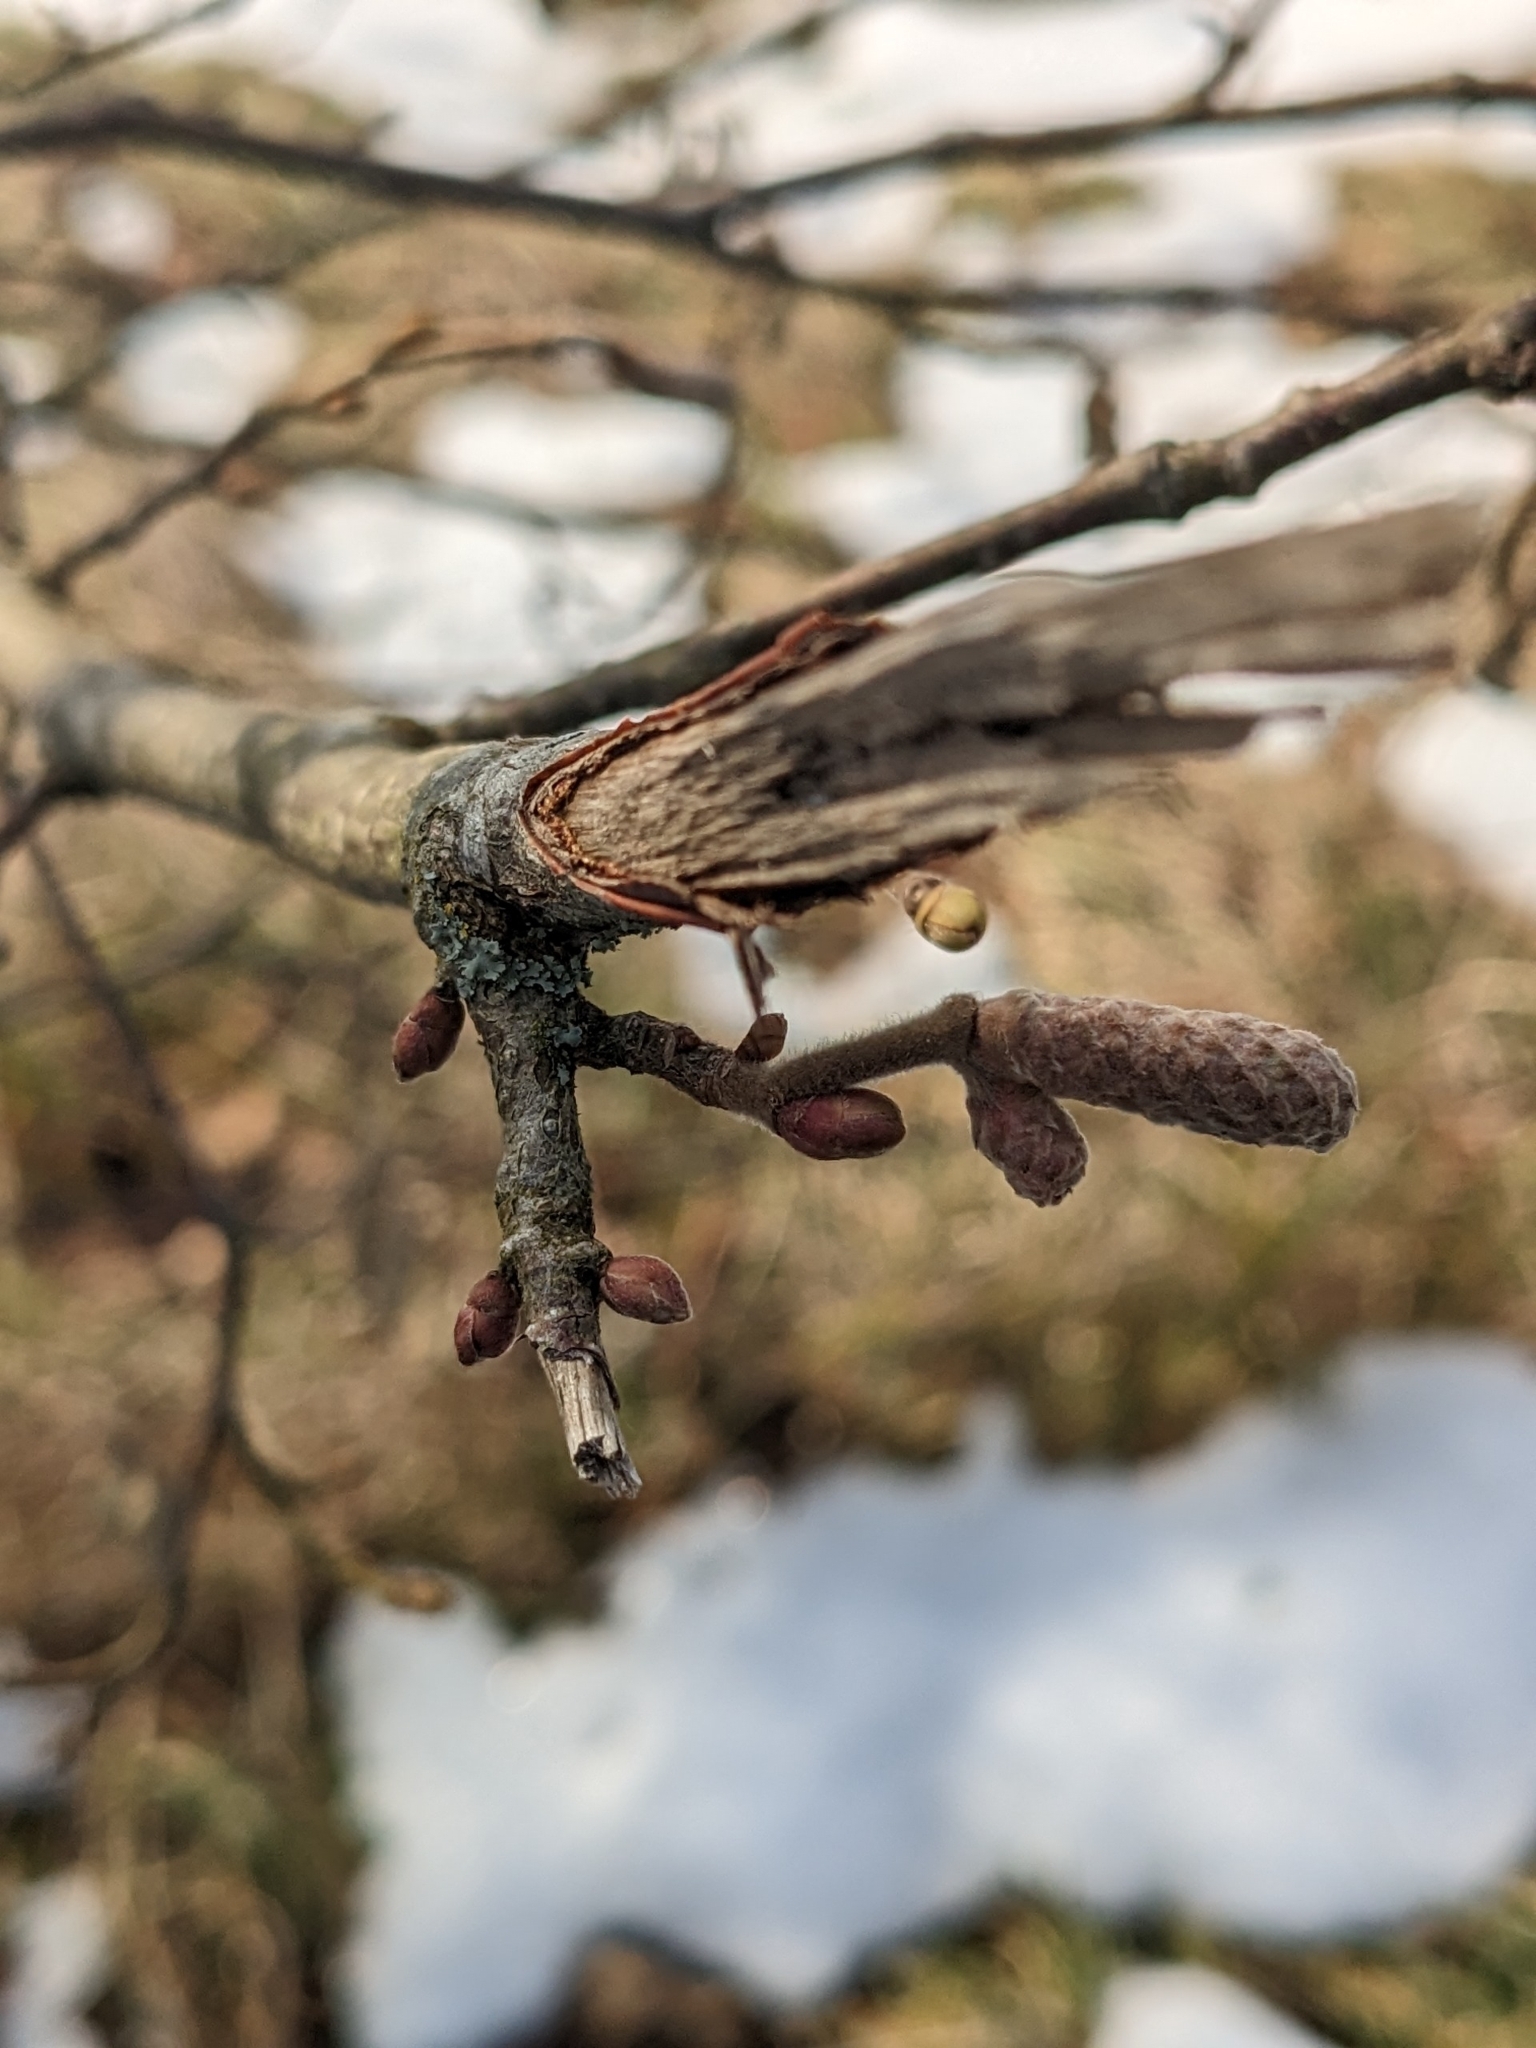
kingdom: Plantae
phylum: Tracheophyta
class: Magnoliopsida
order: Fagales
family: Betulaceae
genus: Corylus
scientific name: Corylus avellana
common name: European hazel
